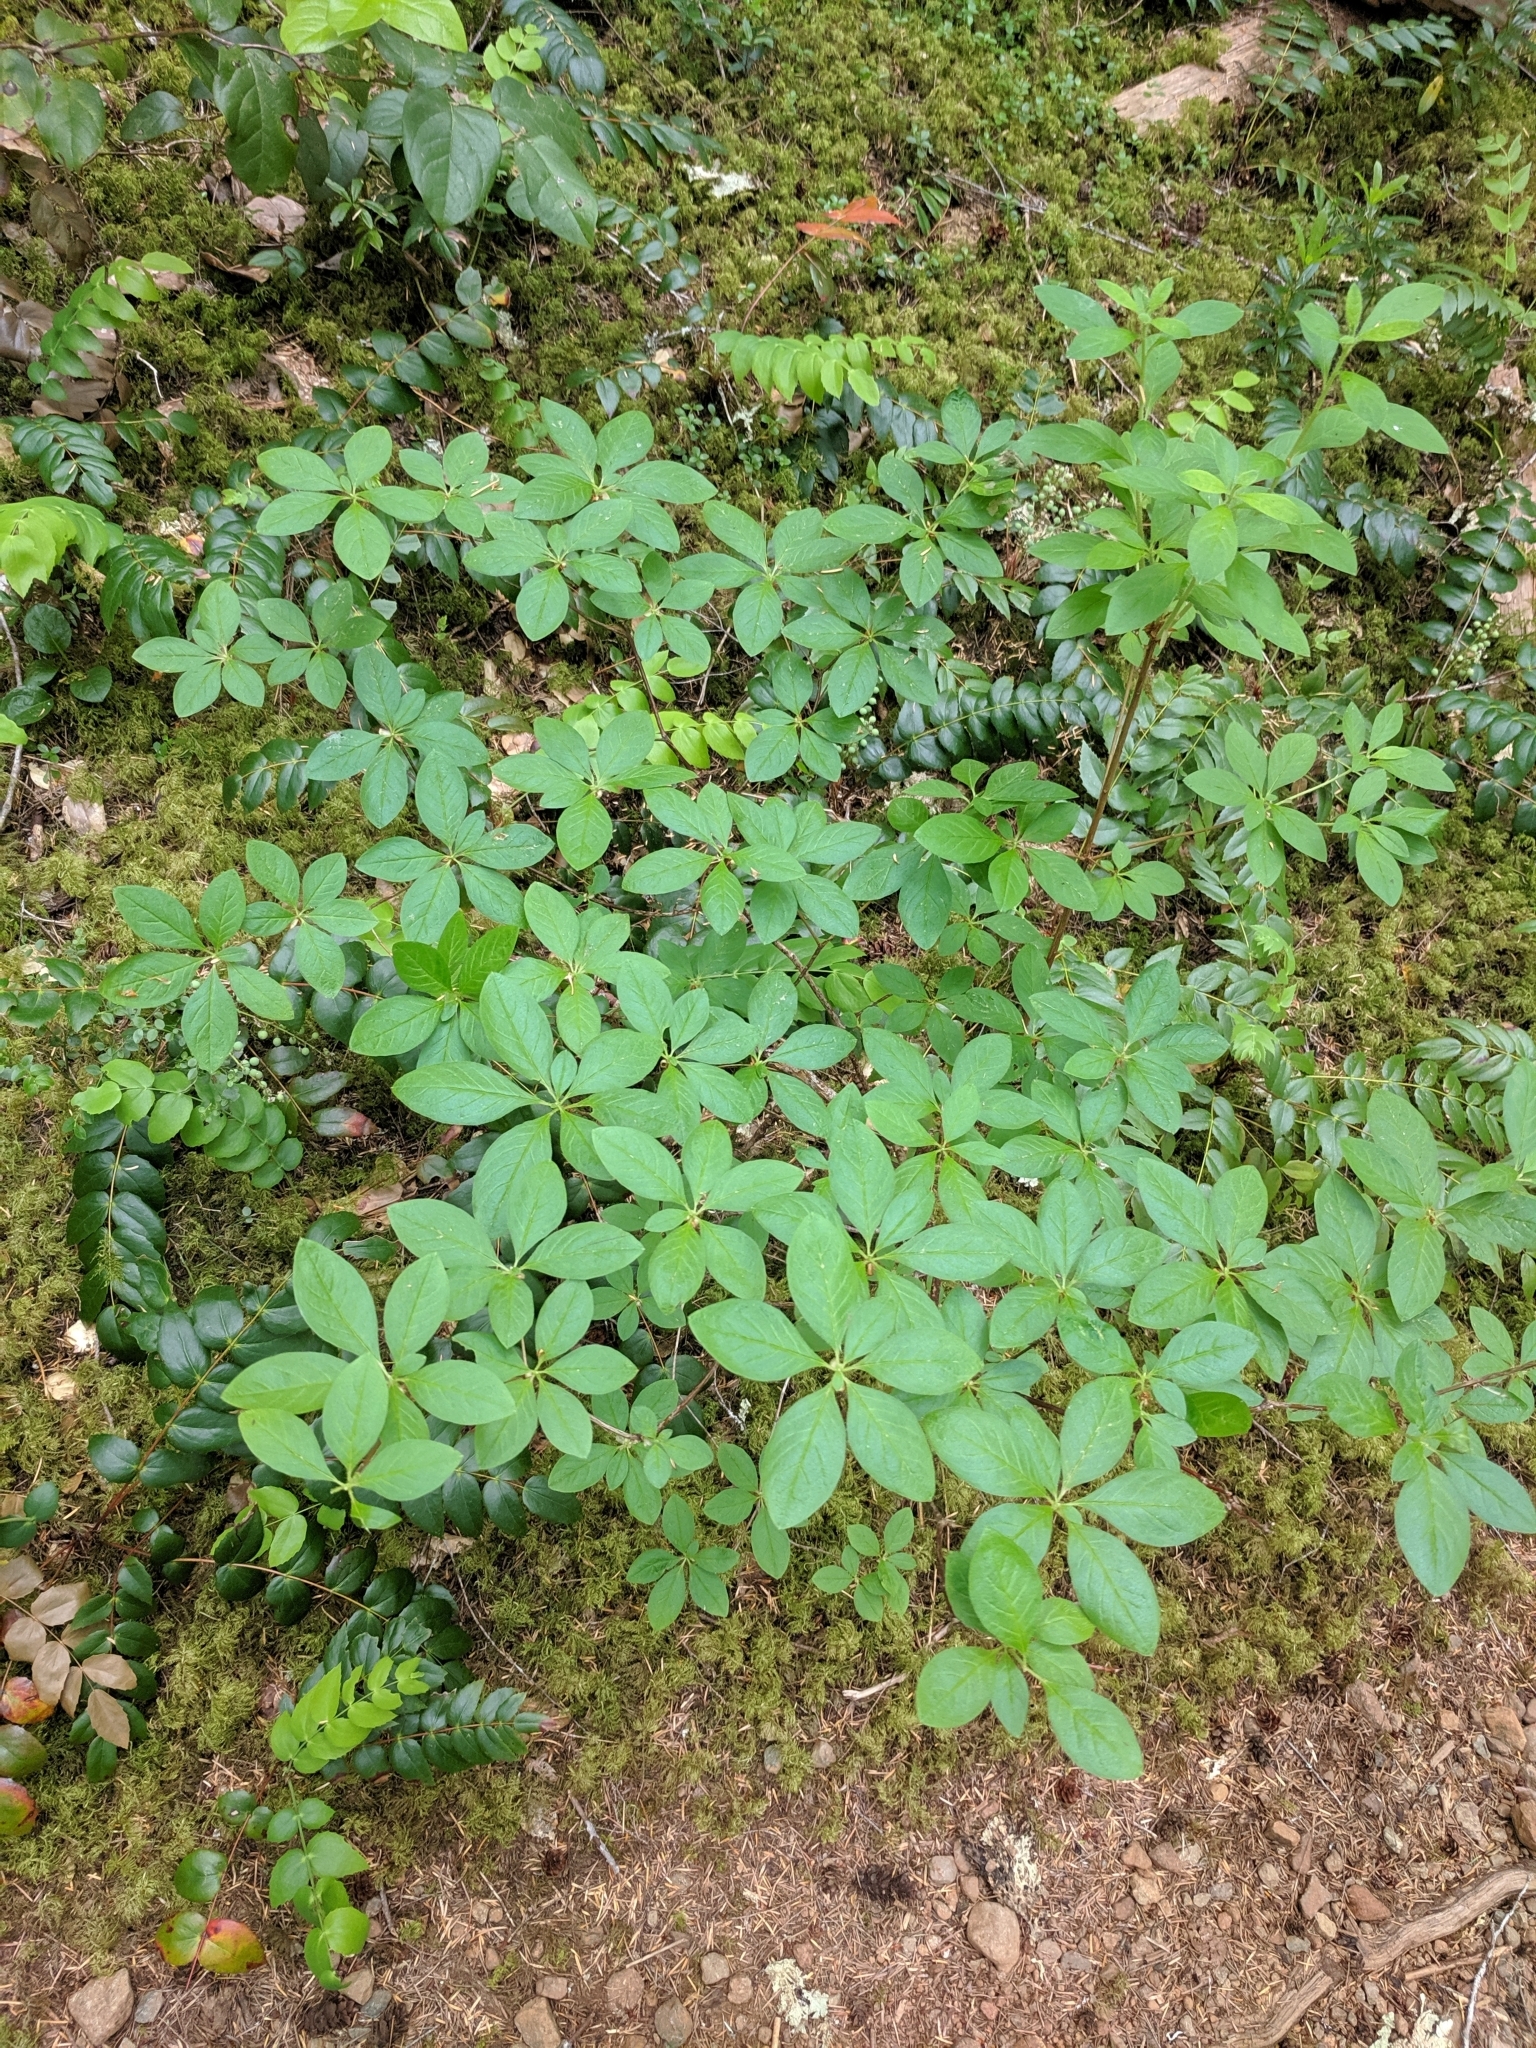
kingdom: Plantae
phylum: Tracheophyta
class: Magnoliopsida
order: Ericales
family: Ericaceae
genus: Rhododendron
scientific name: Rhododendron menziesii
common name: Pacific menziesia
